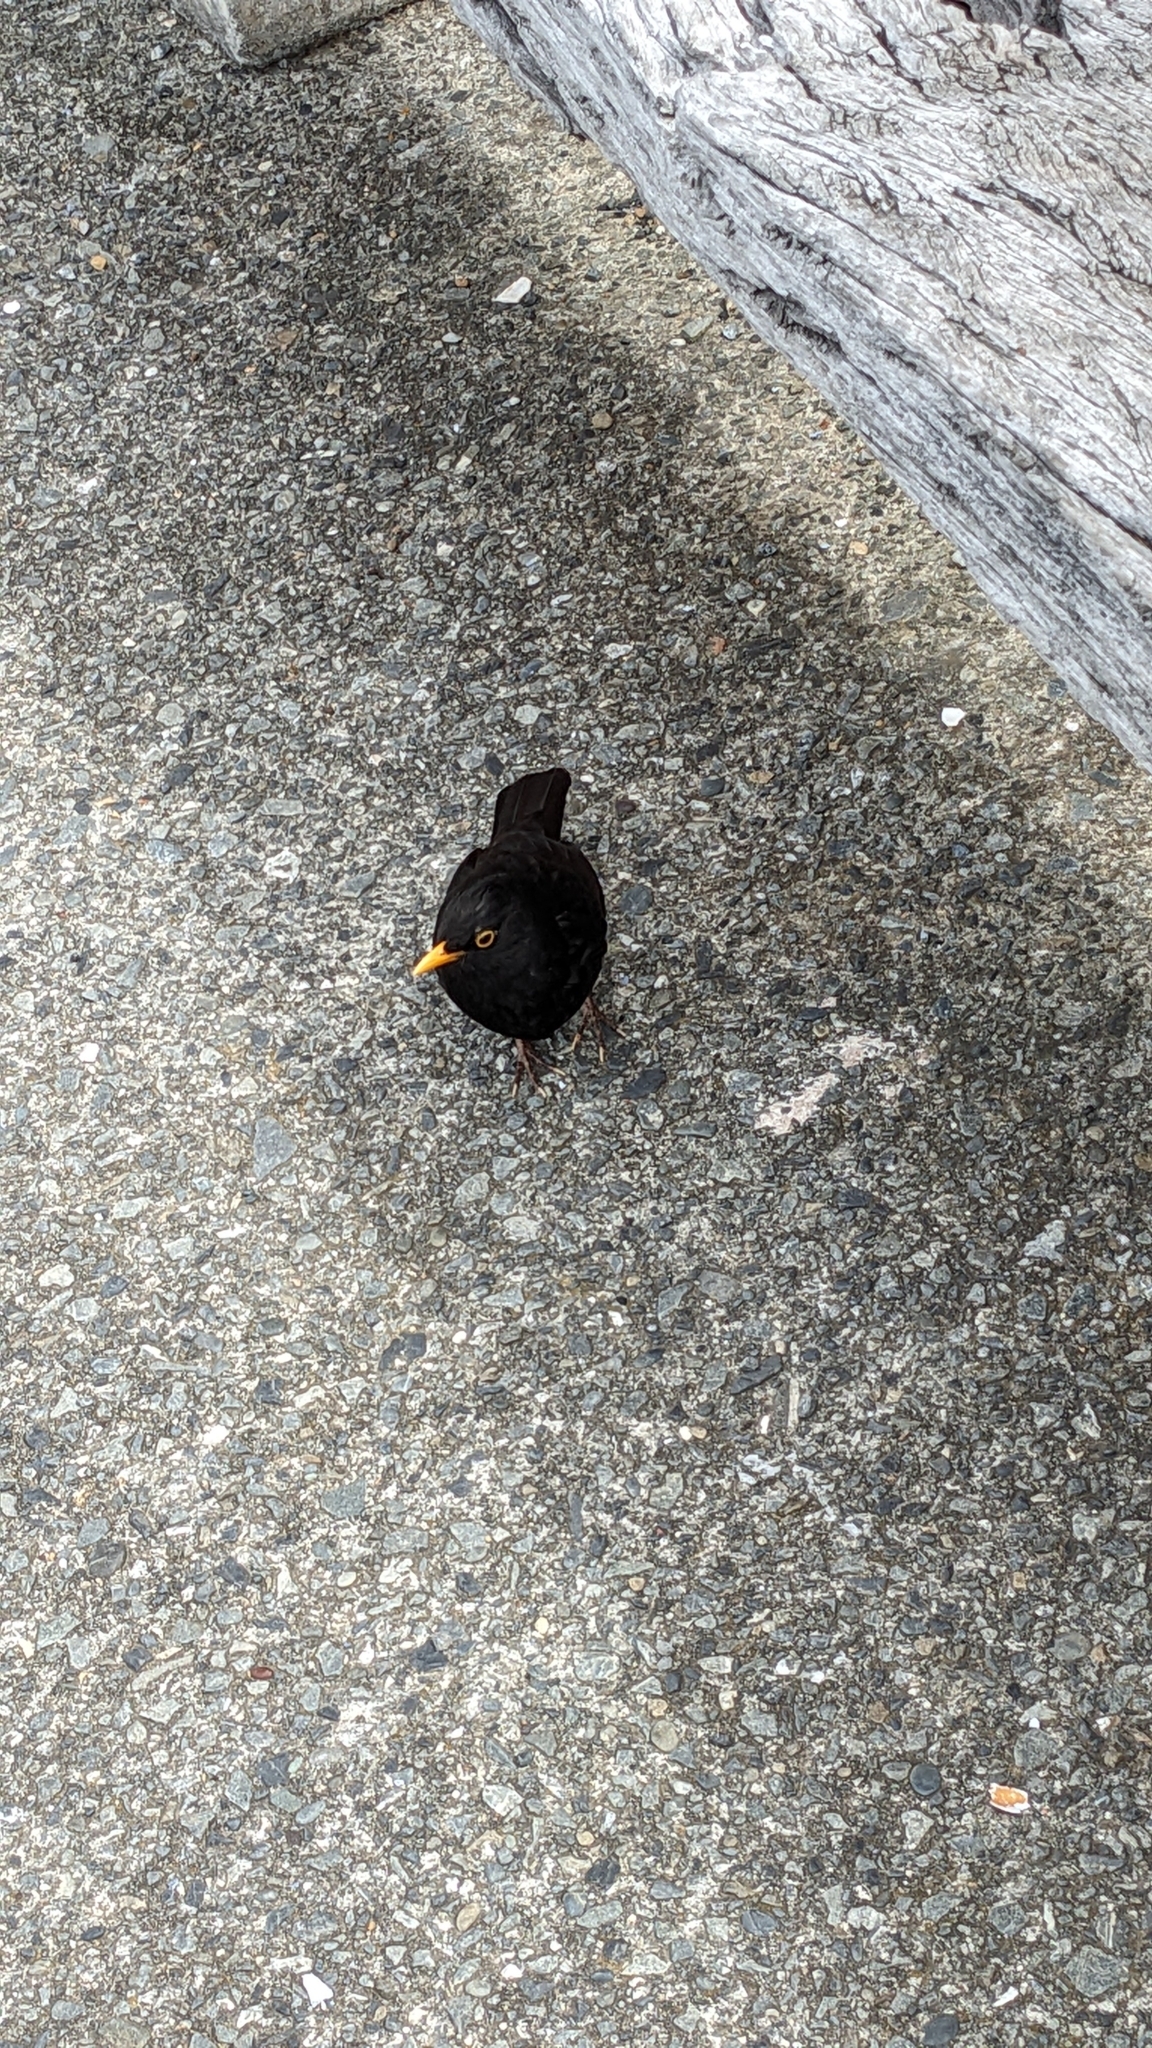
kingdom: Animalia
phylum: Chordata
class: Aves
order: Passeriformes
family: Turdidae
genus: Turdus
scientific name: Turdus merula
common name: Common blackbird
